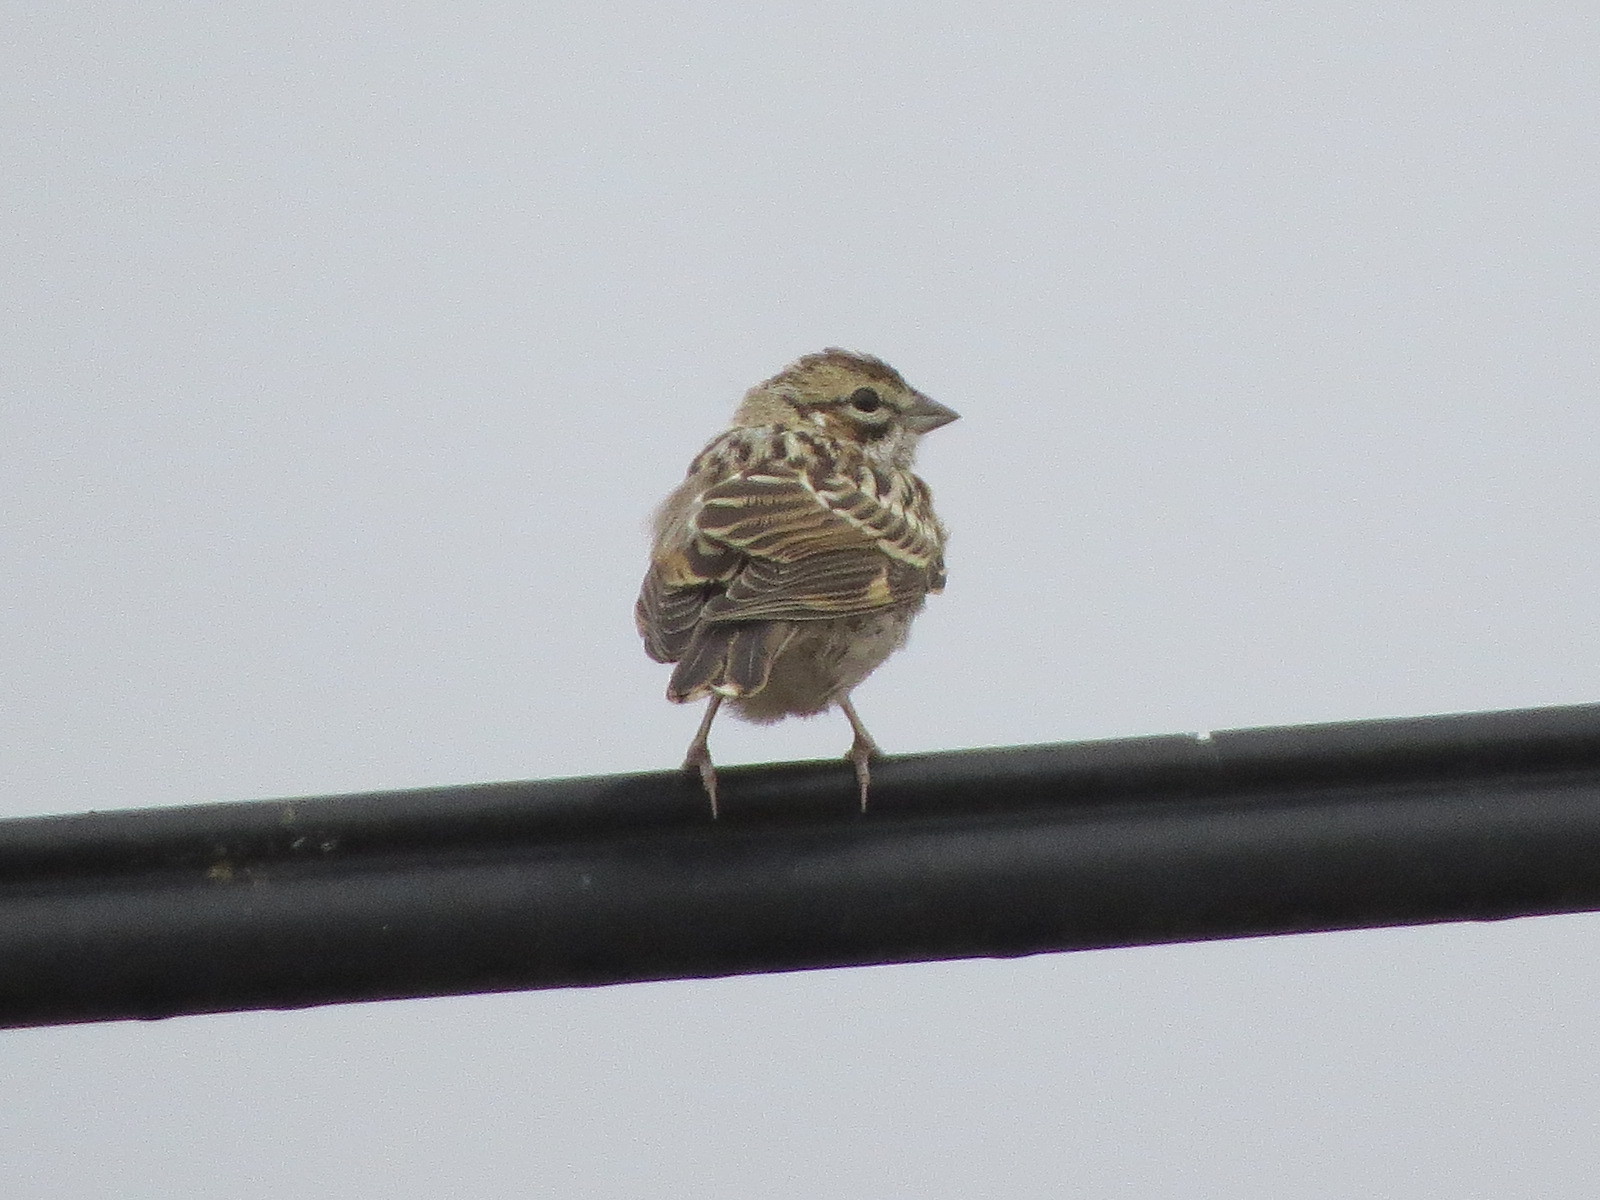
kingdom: Animalia
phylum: Chordata
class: Aves
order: Passeriformes
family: Passerellidae
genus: Chondestes
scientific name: Chondestes grammacus
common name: Lark sparrow
